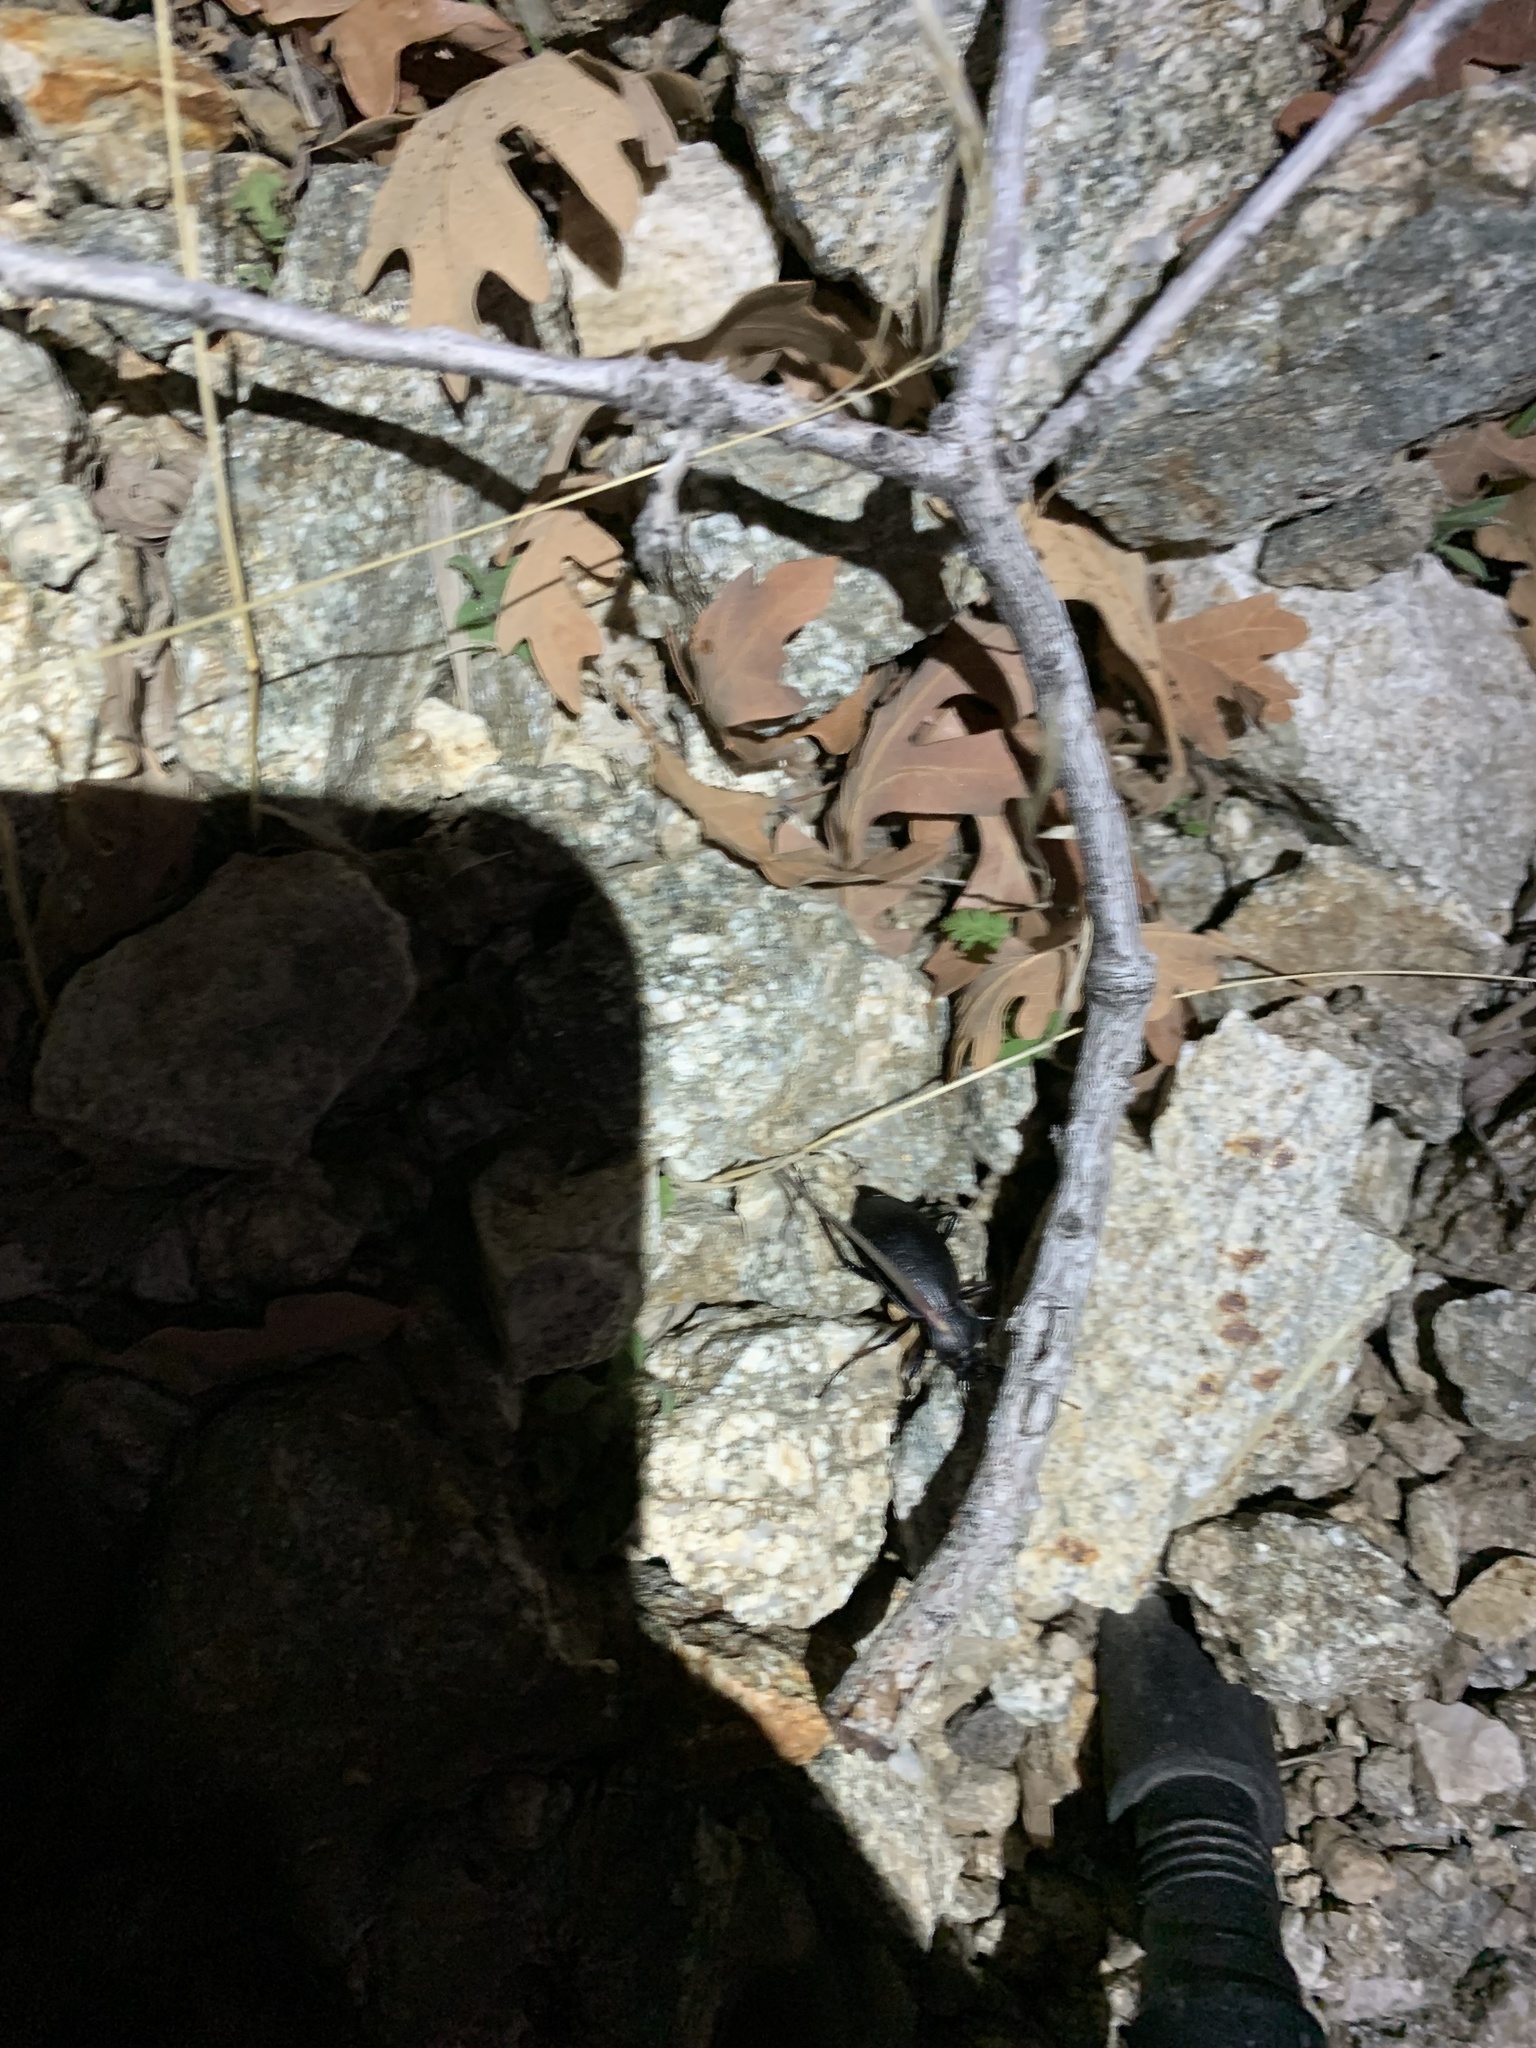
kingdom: Animalia
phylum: Arthropoda
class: Insecta
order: Coleoptera
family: Carabidae
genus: Carabus
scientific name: Carabus taedatus
